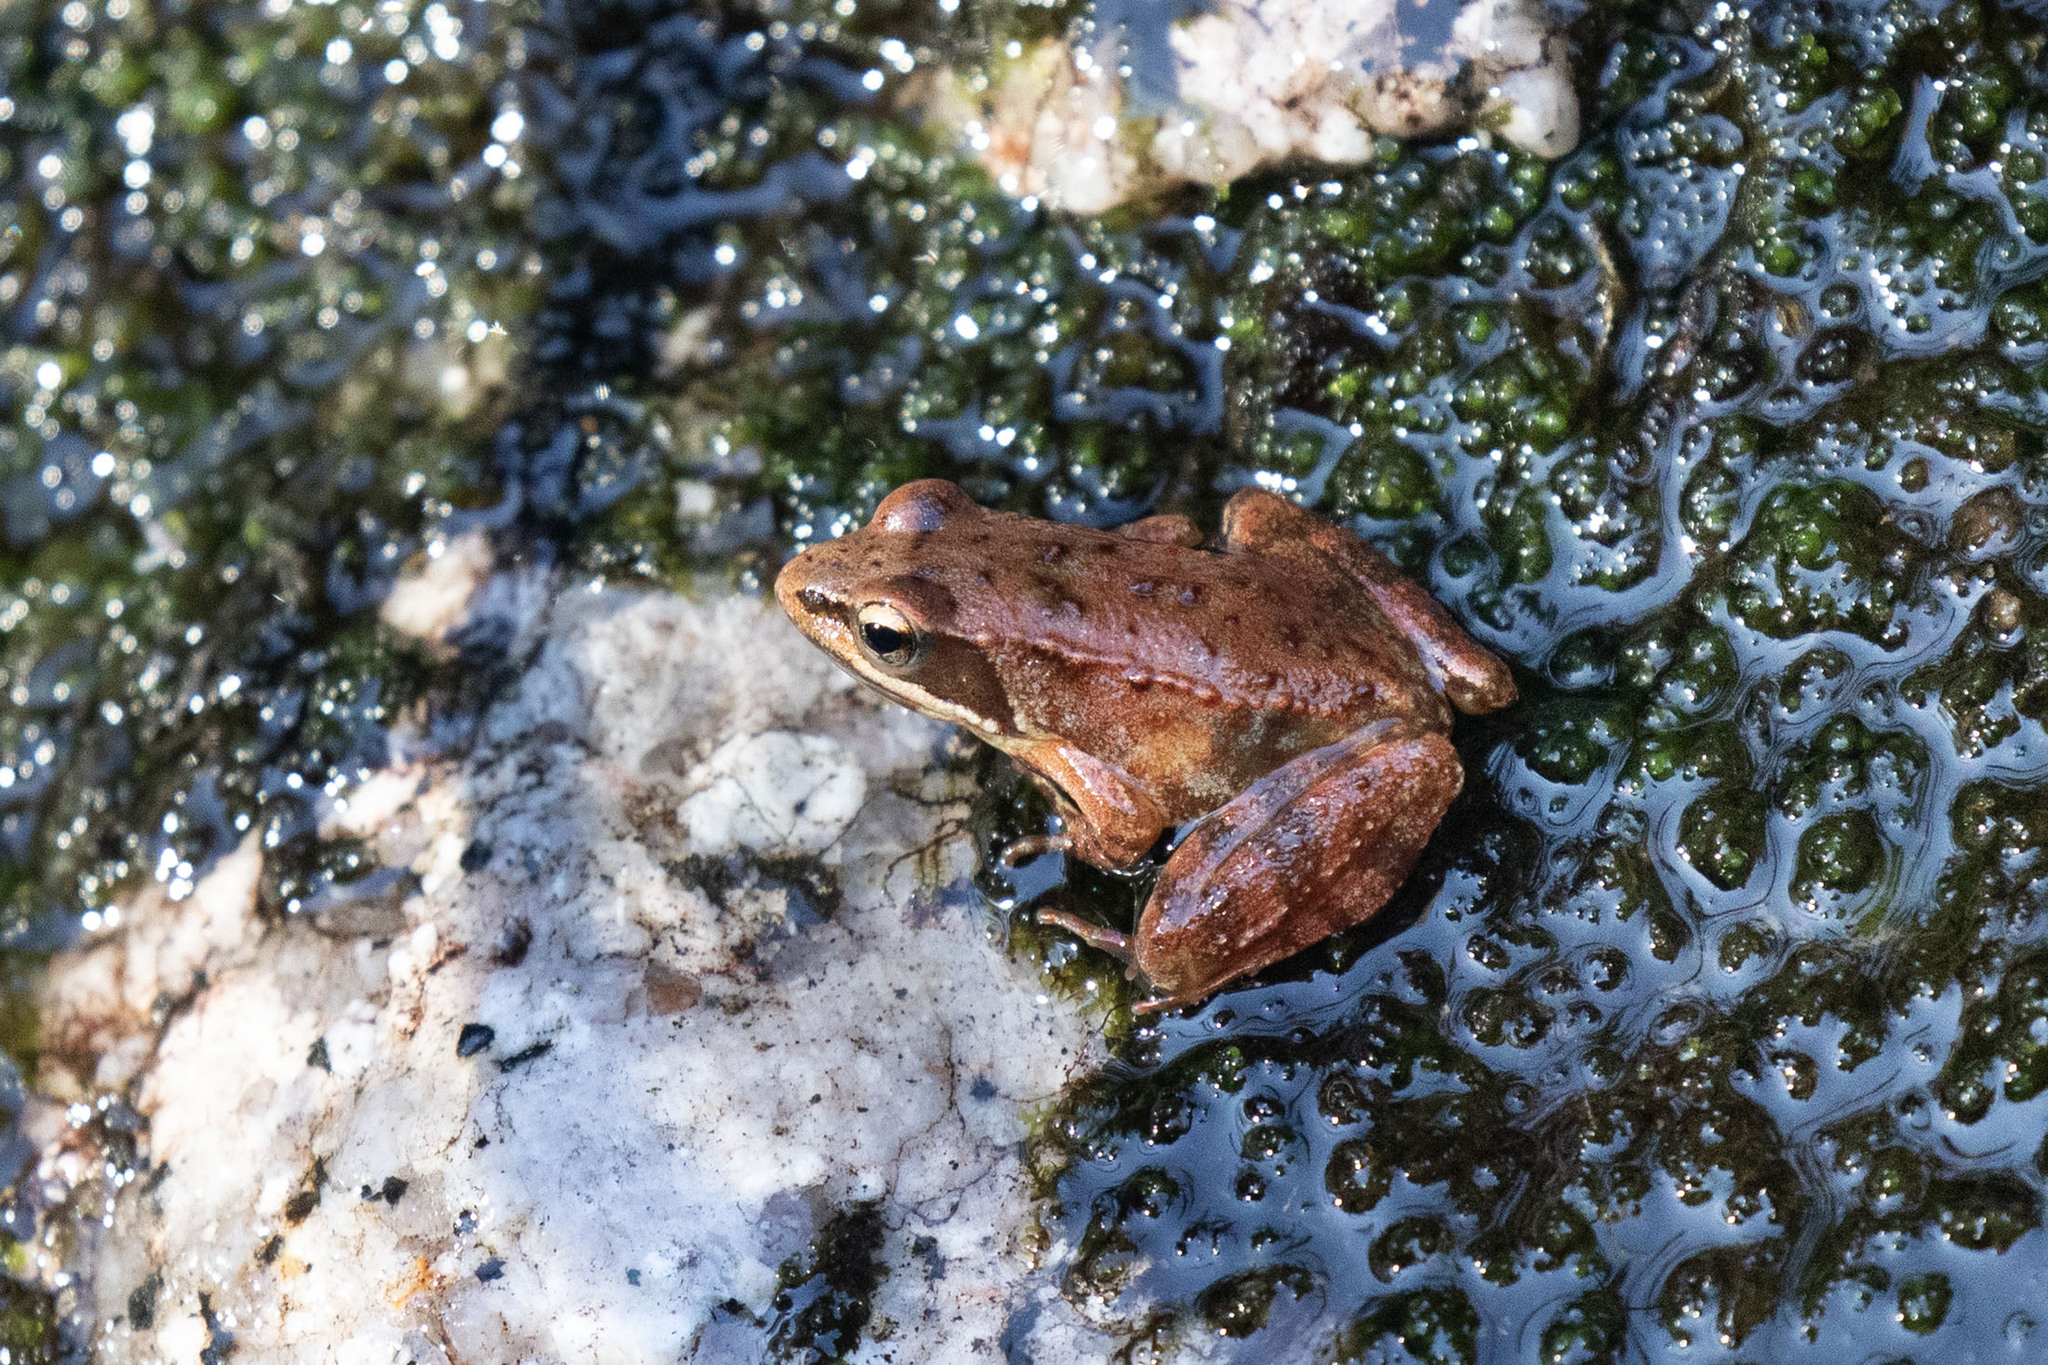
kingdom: Animalia
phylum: Chordata
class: Amphibia
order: Anura
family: Ranidae
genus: Rana
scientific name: Rana iberica
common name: Iberian frog
